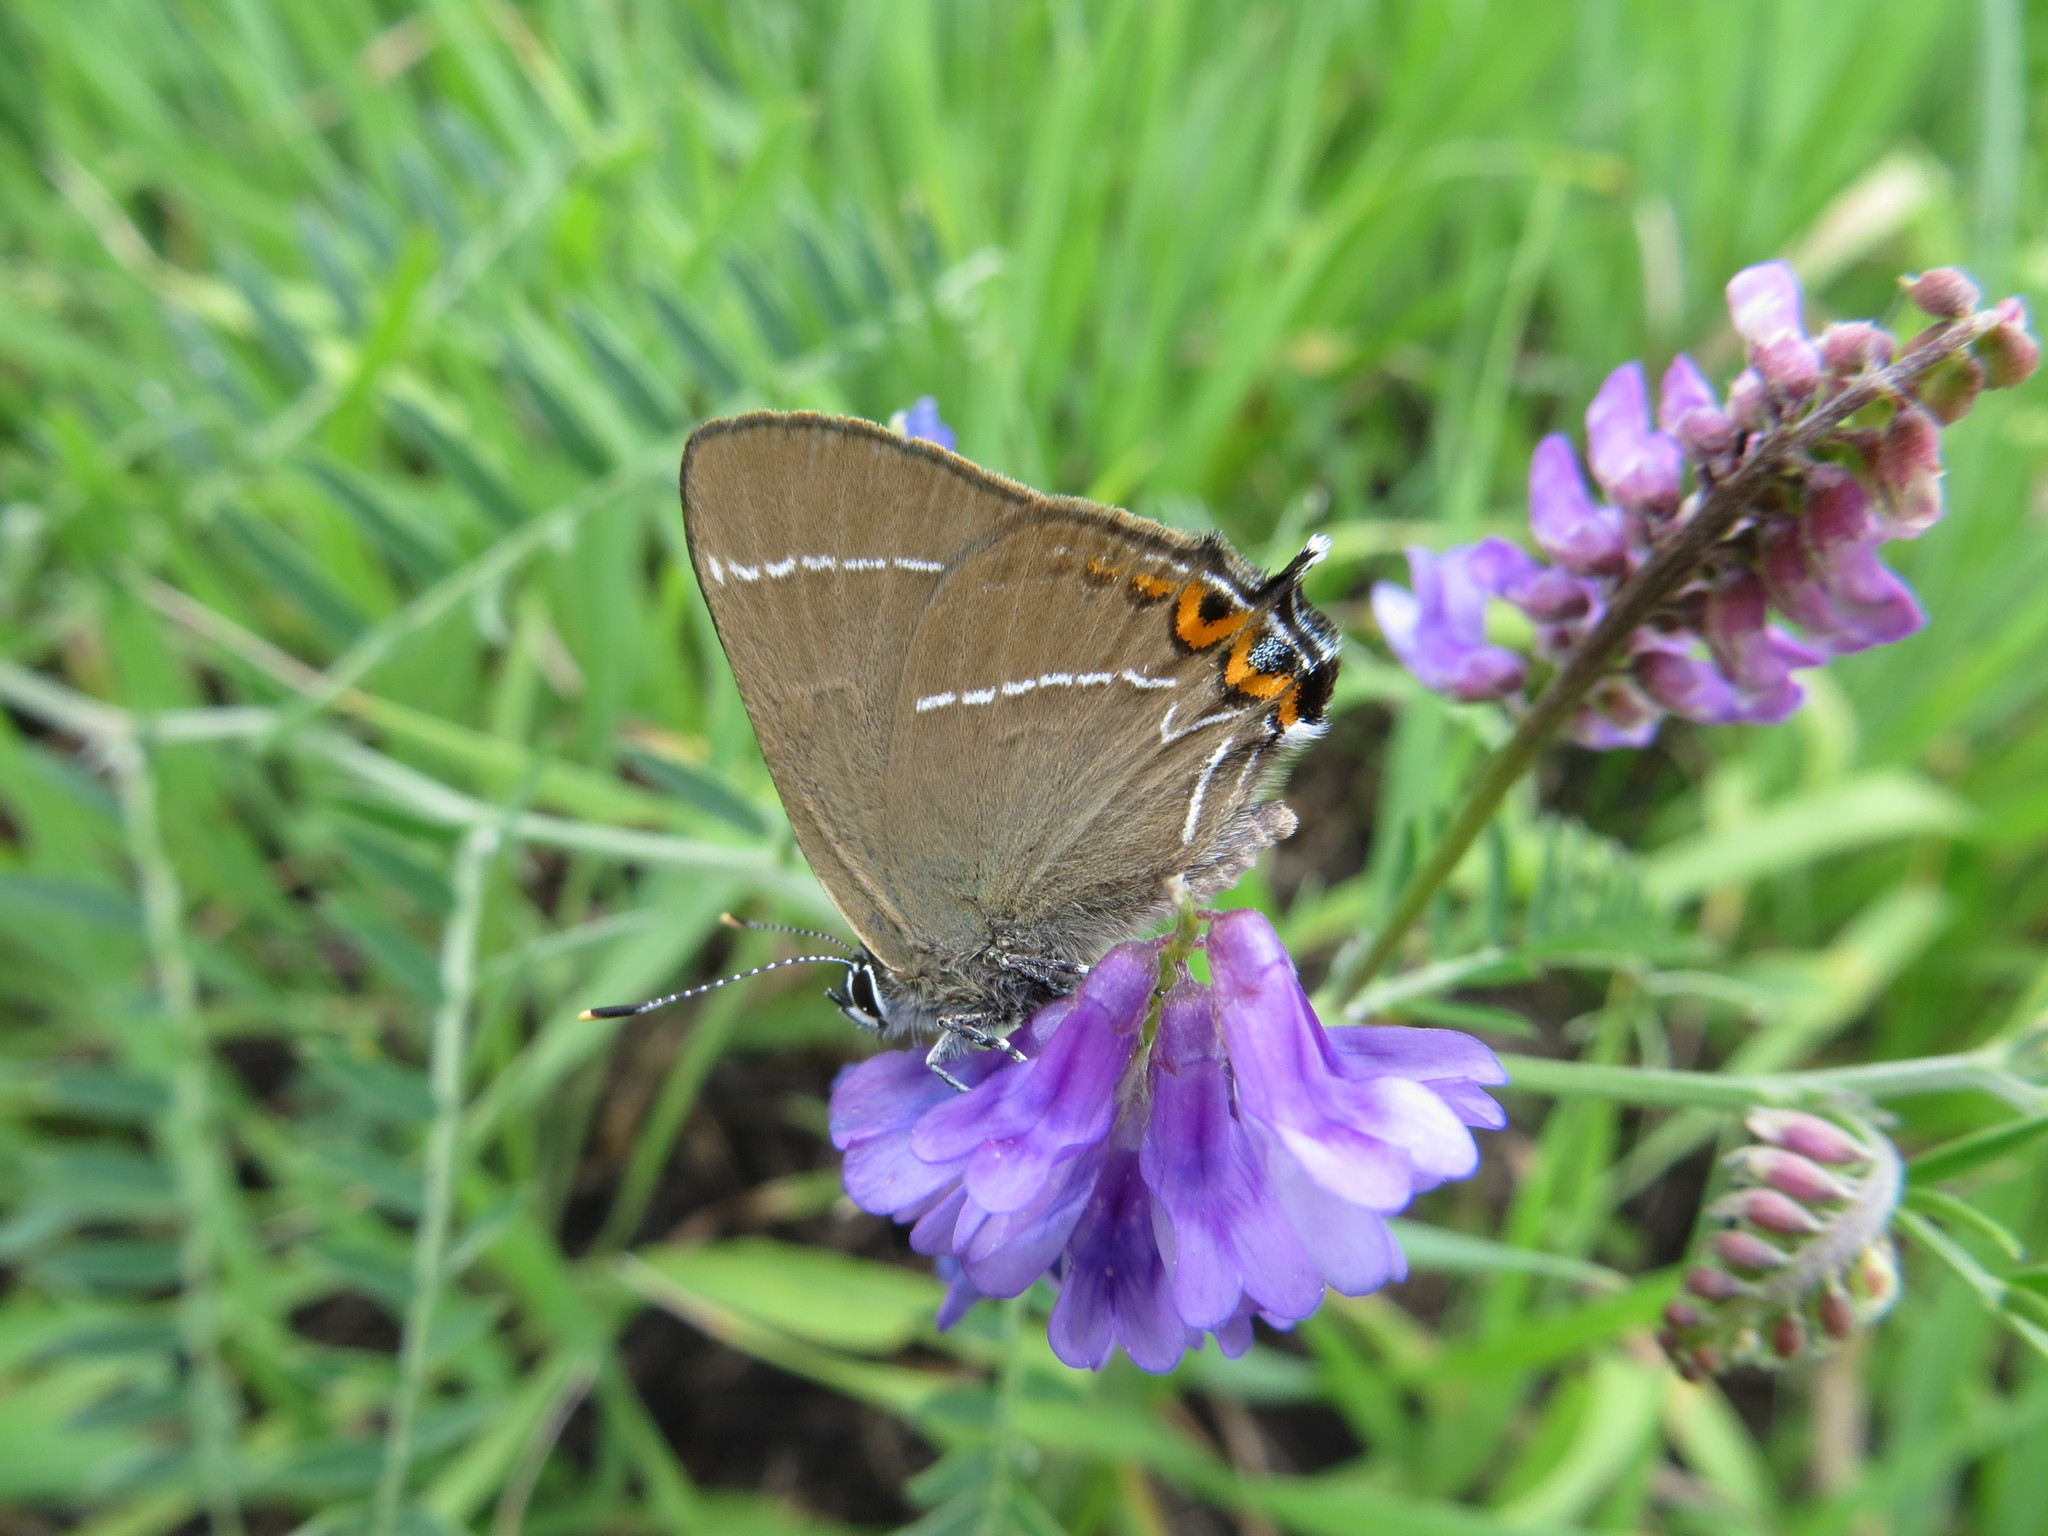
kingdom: Animalia
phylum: Arthropoda
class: Insecta
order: Lepidoptera
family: Lycaenidae
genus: Satyrium
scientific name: Satyrium w-album
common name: White-letter hairstreak
